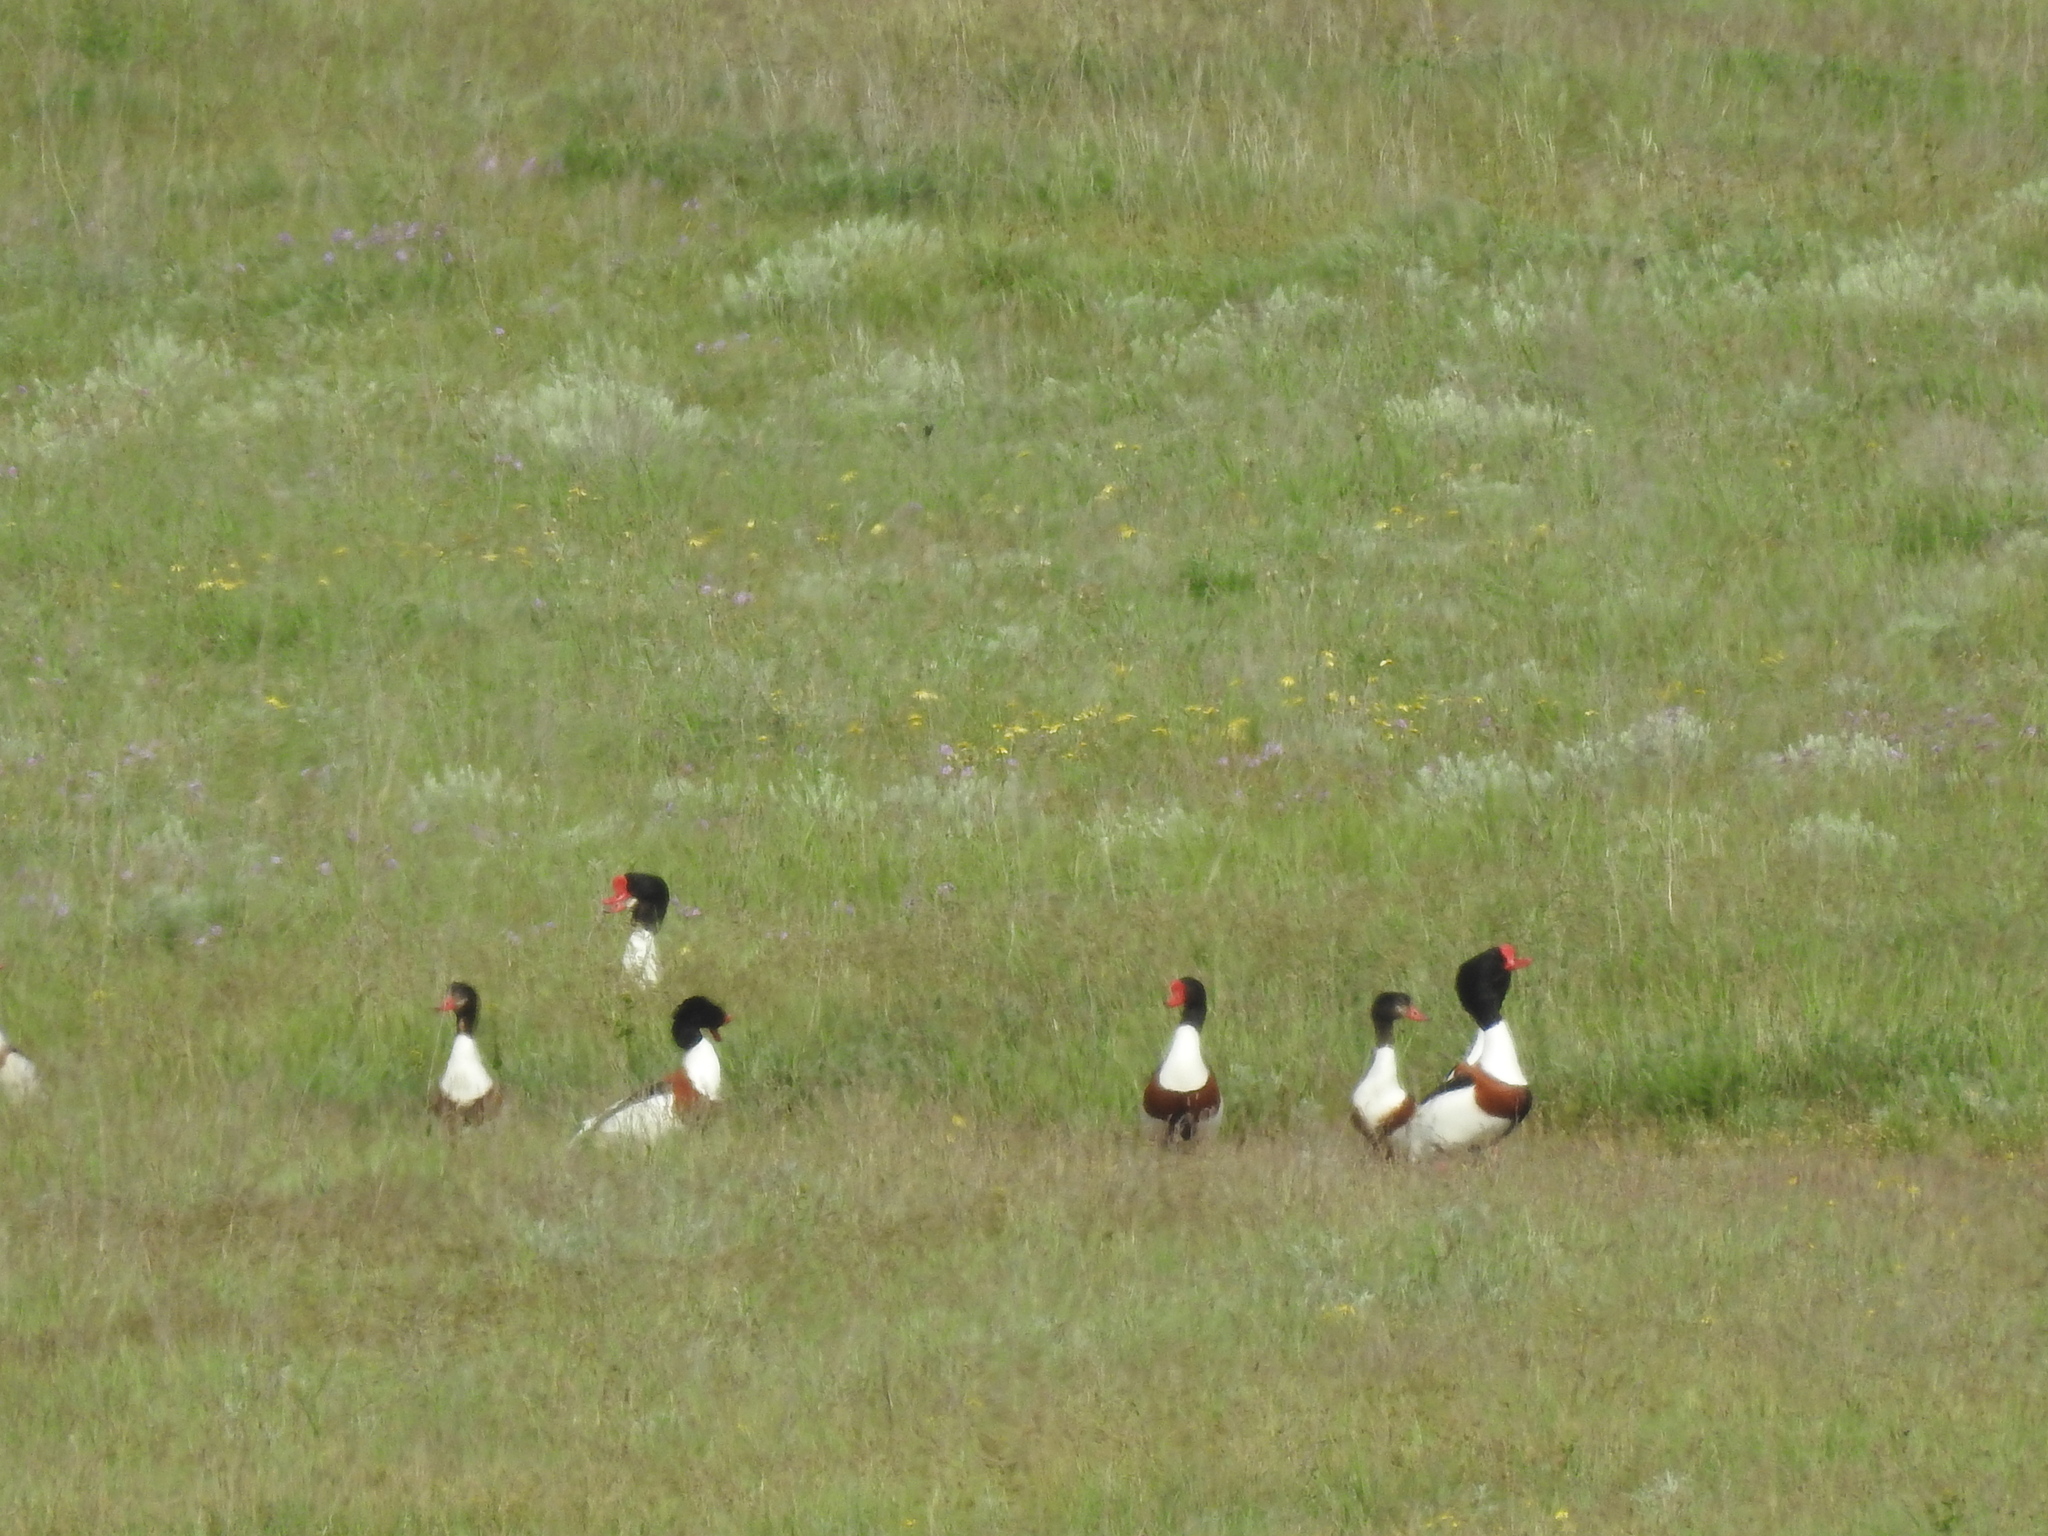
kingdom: Animalia
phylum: Chordata
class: Aves
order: Anseriformes
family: Anatidae
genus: Tadorna
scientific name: Tadorna tadorna
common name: Common shelduck
